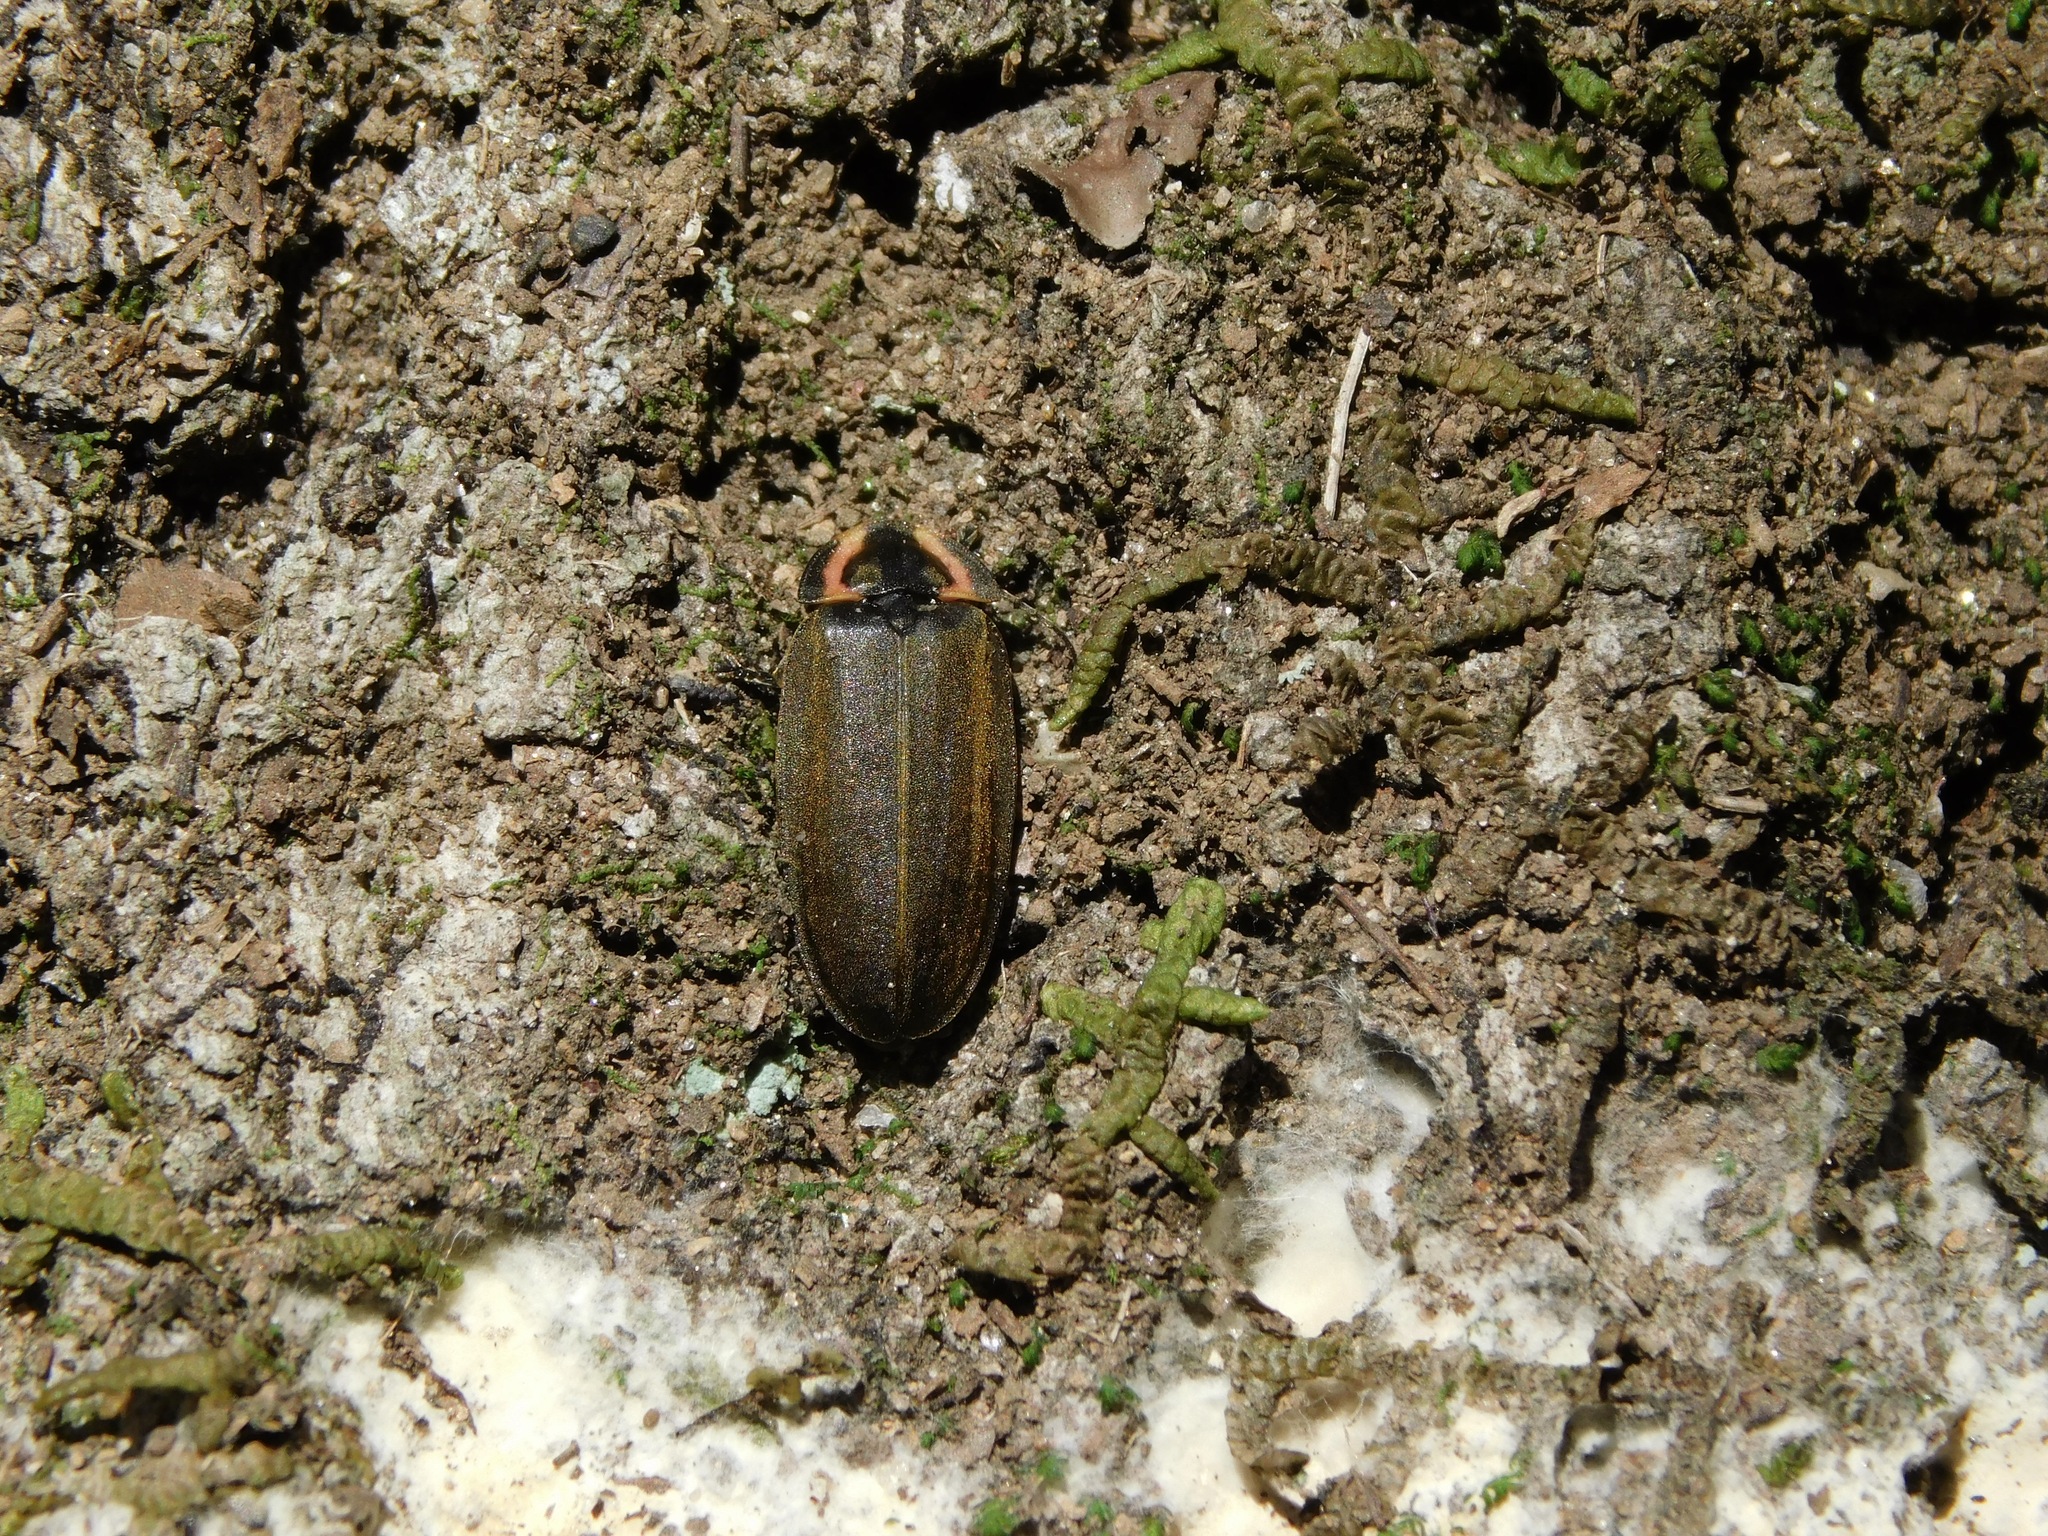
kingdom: Animalia
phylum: Arthropoda
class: Insecta
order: Coleoptera
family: Lampyridae
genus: Photinus
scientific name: Photinus corrusca
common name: Winter firefly
